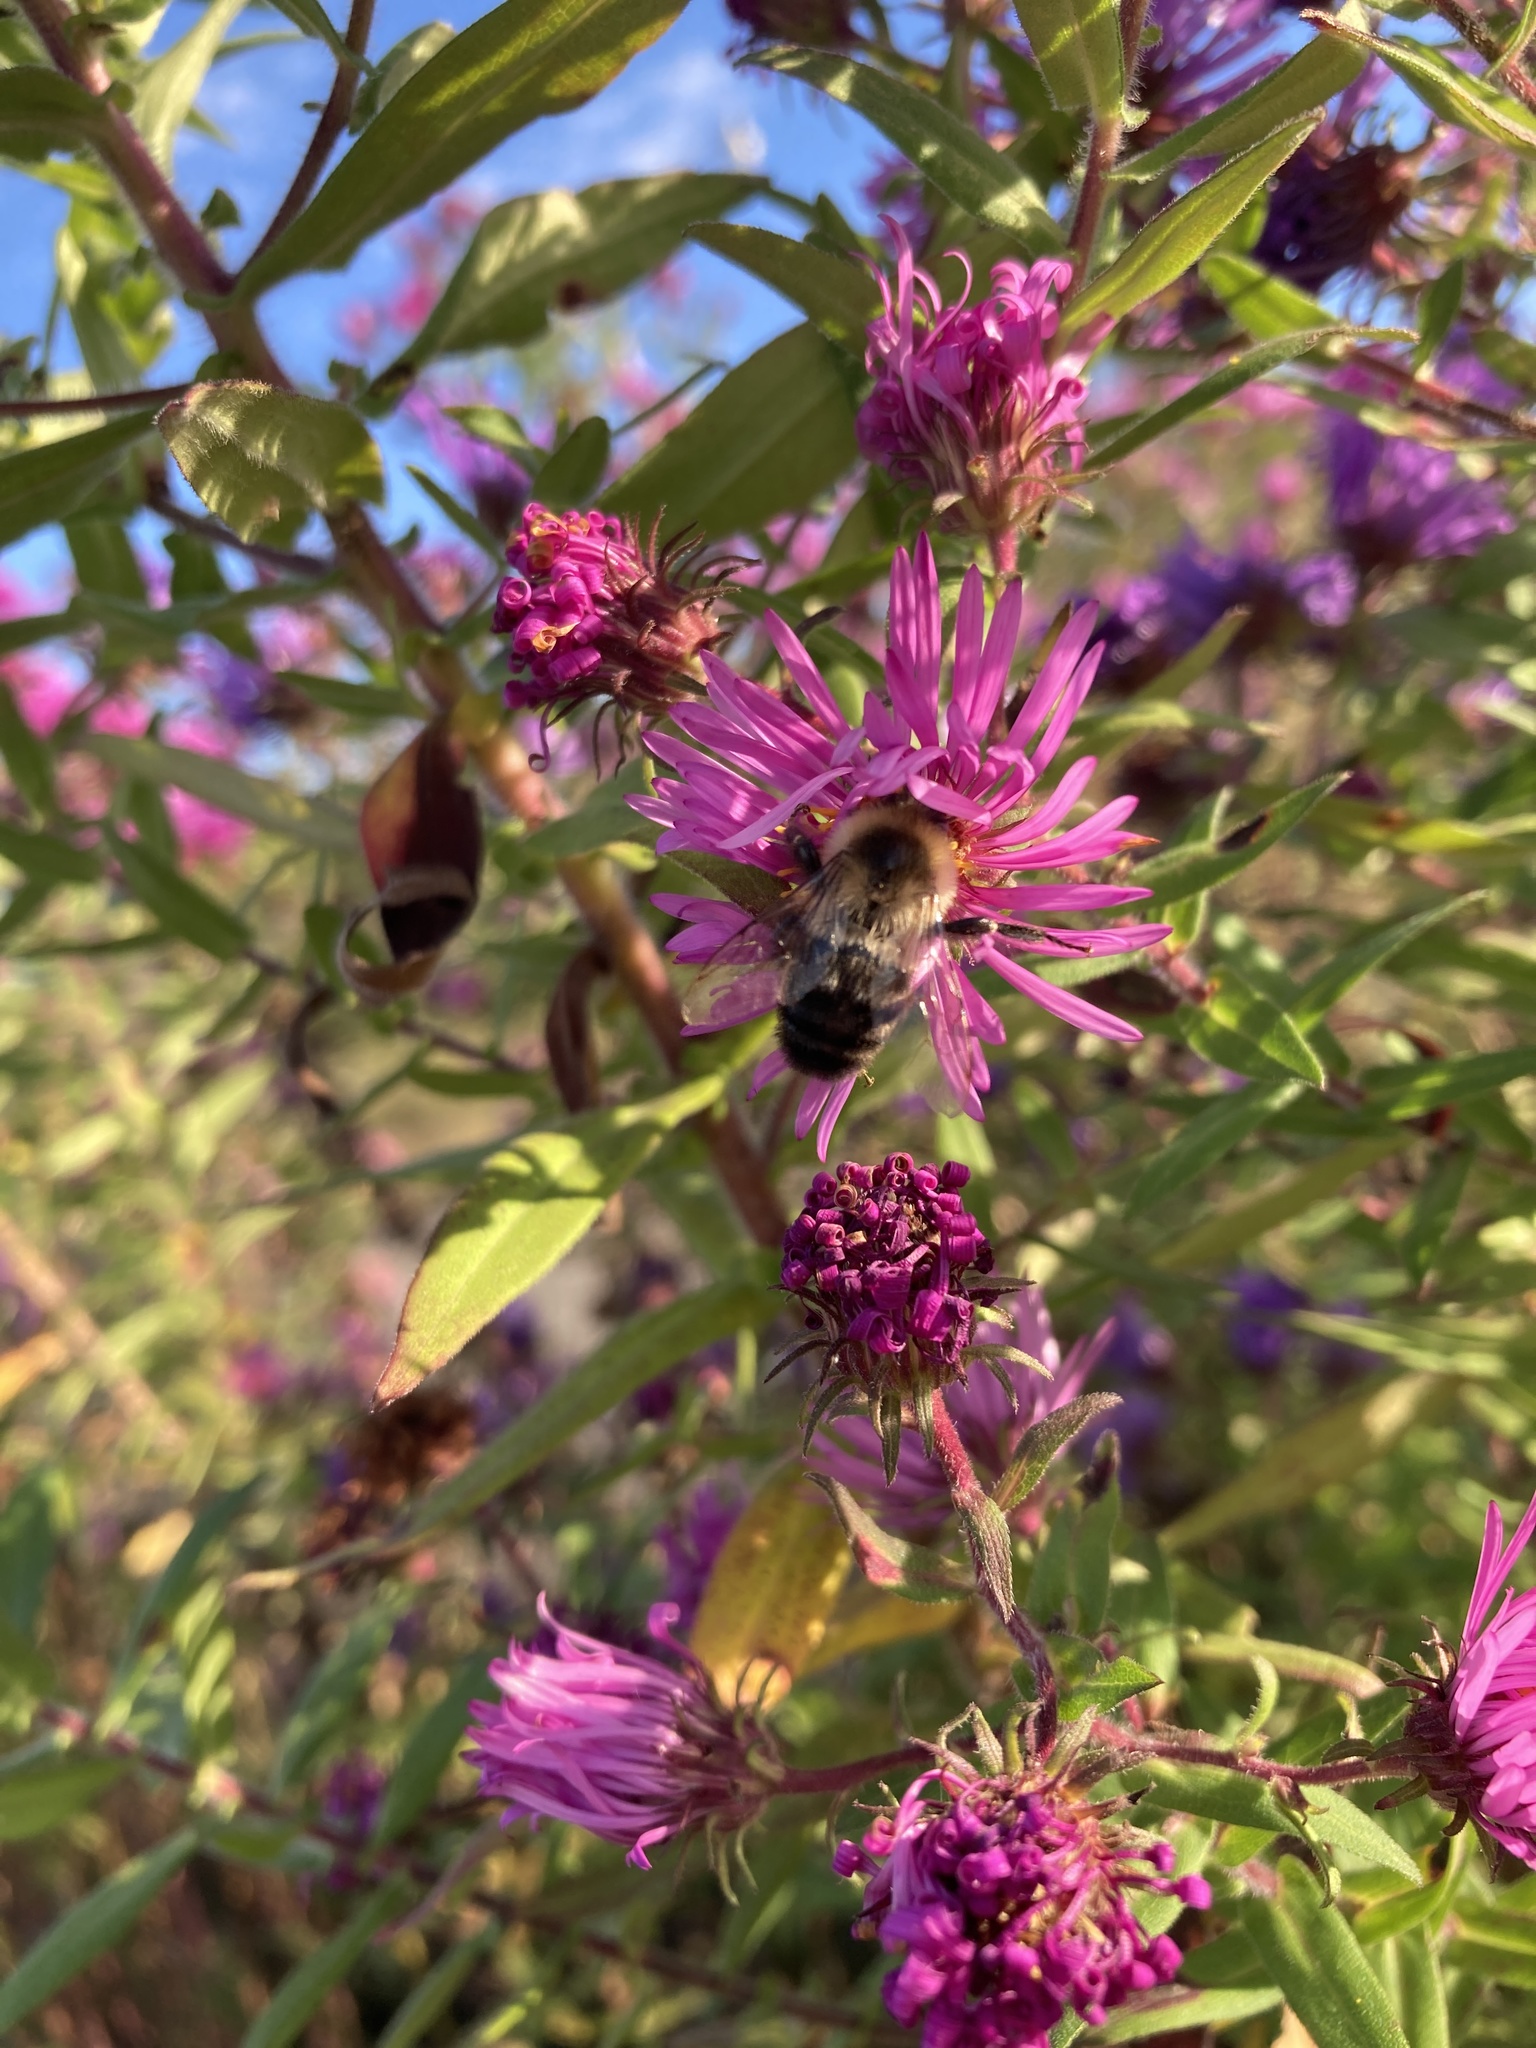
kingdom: Animalia
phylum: Arthropoda
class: Insecta
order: Hymenoptera
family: Apidae
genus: Bombus
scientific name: Bombus impatiens
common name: Common eastern bumble bee
